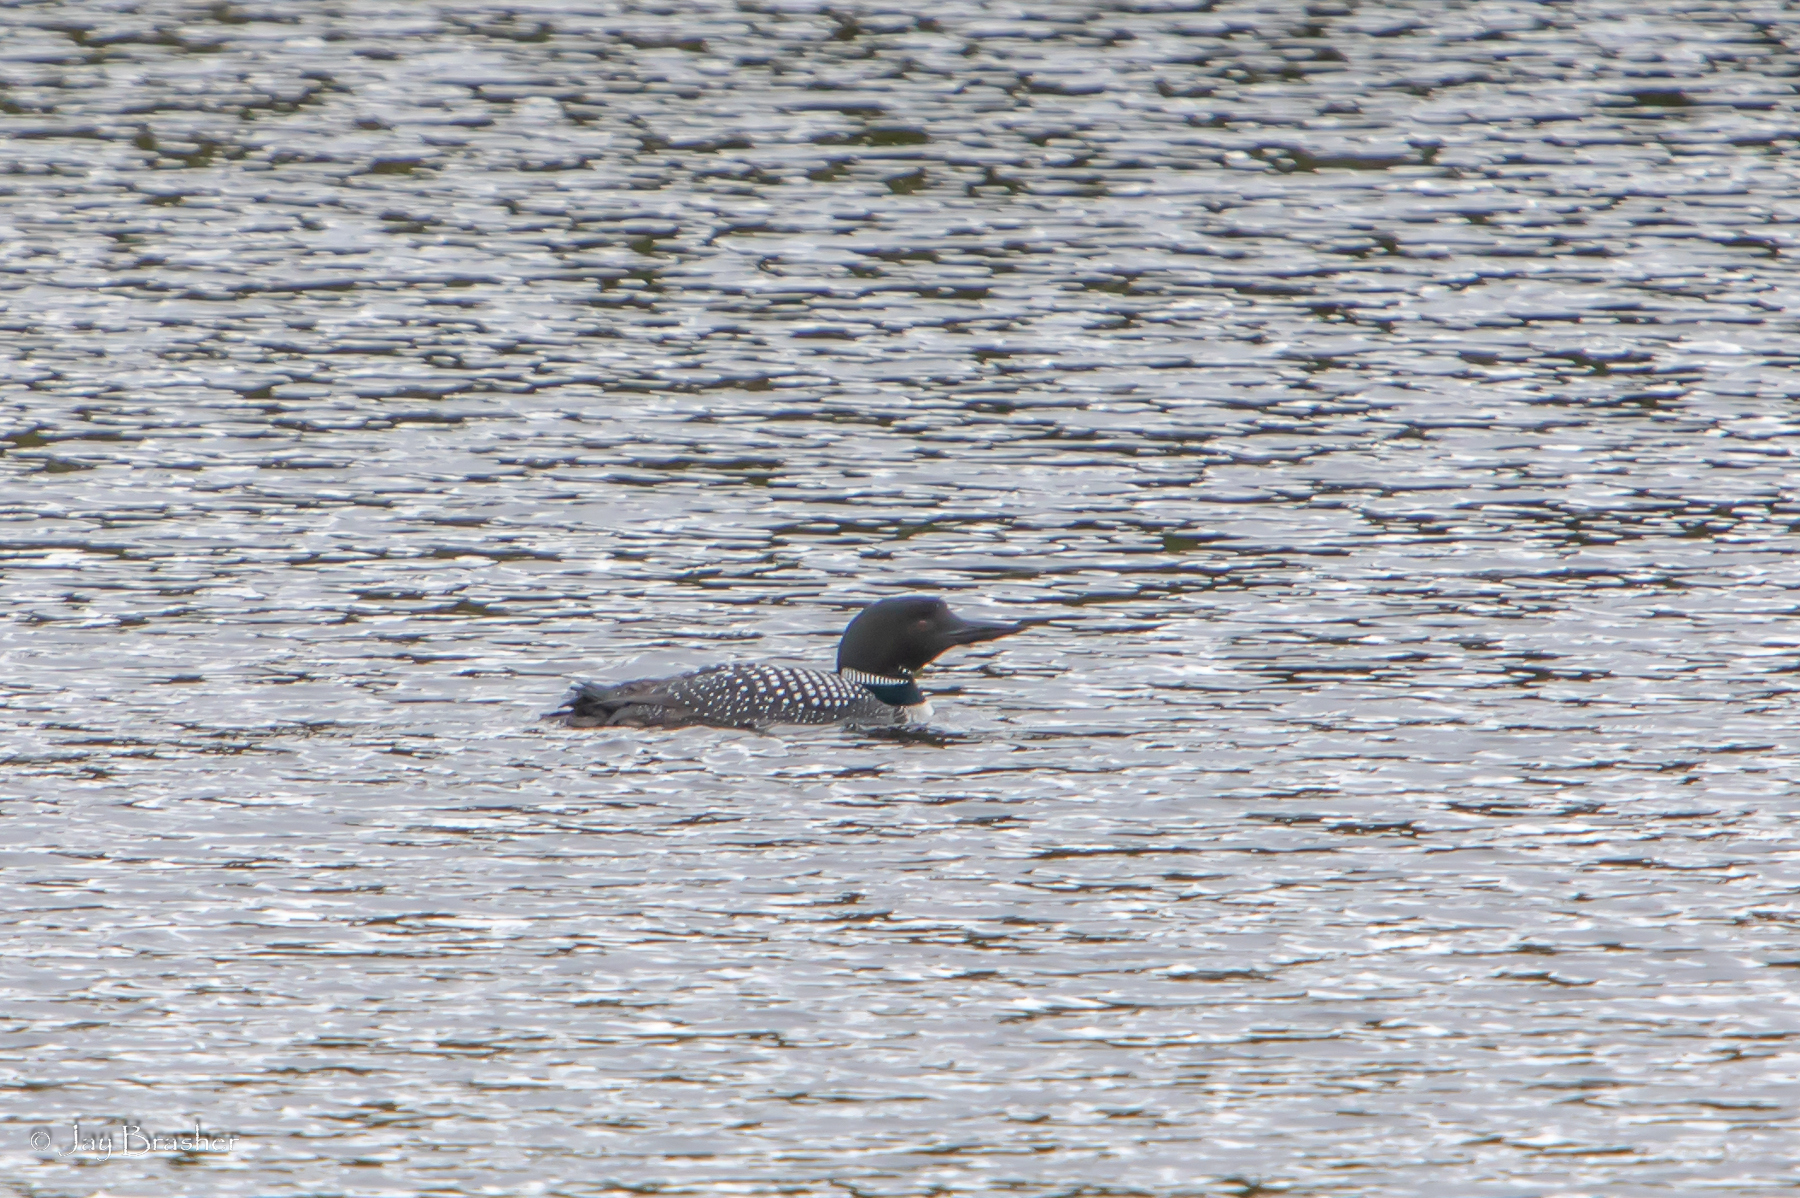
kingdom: Animalia
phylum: Chordata
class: Aves
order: Gaviiformes
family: Gaviidae
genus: Gavia
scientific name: Gavia immer
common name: Common loon
